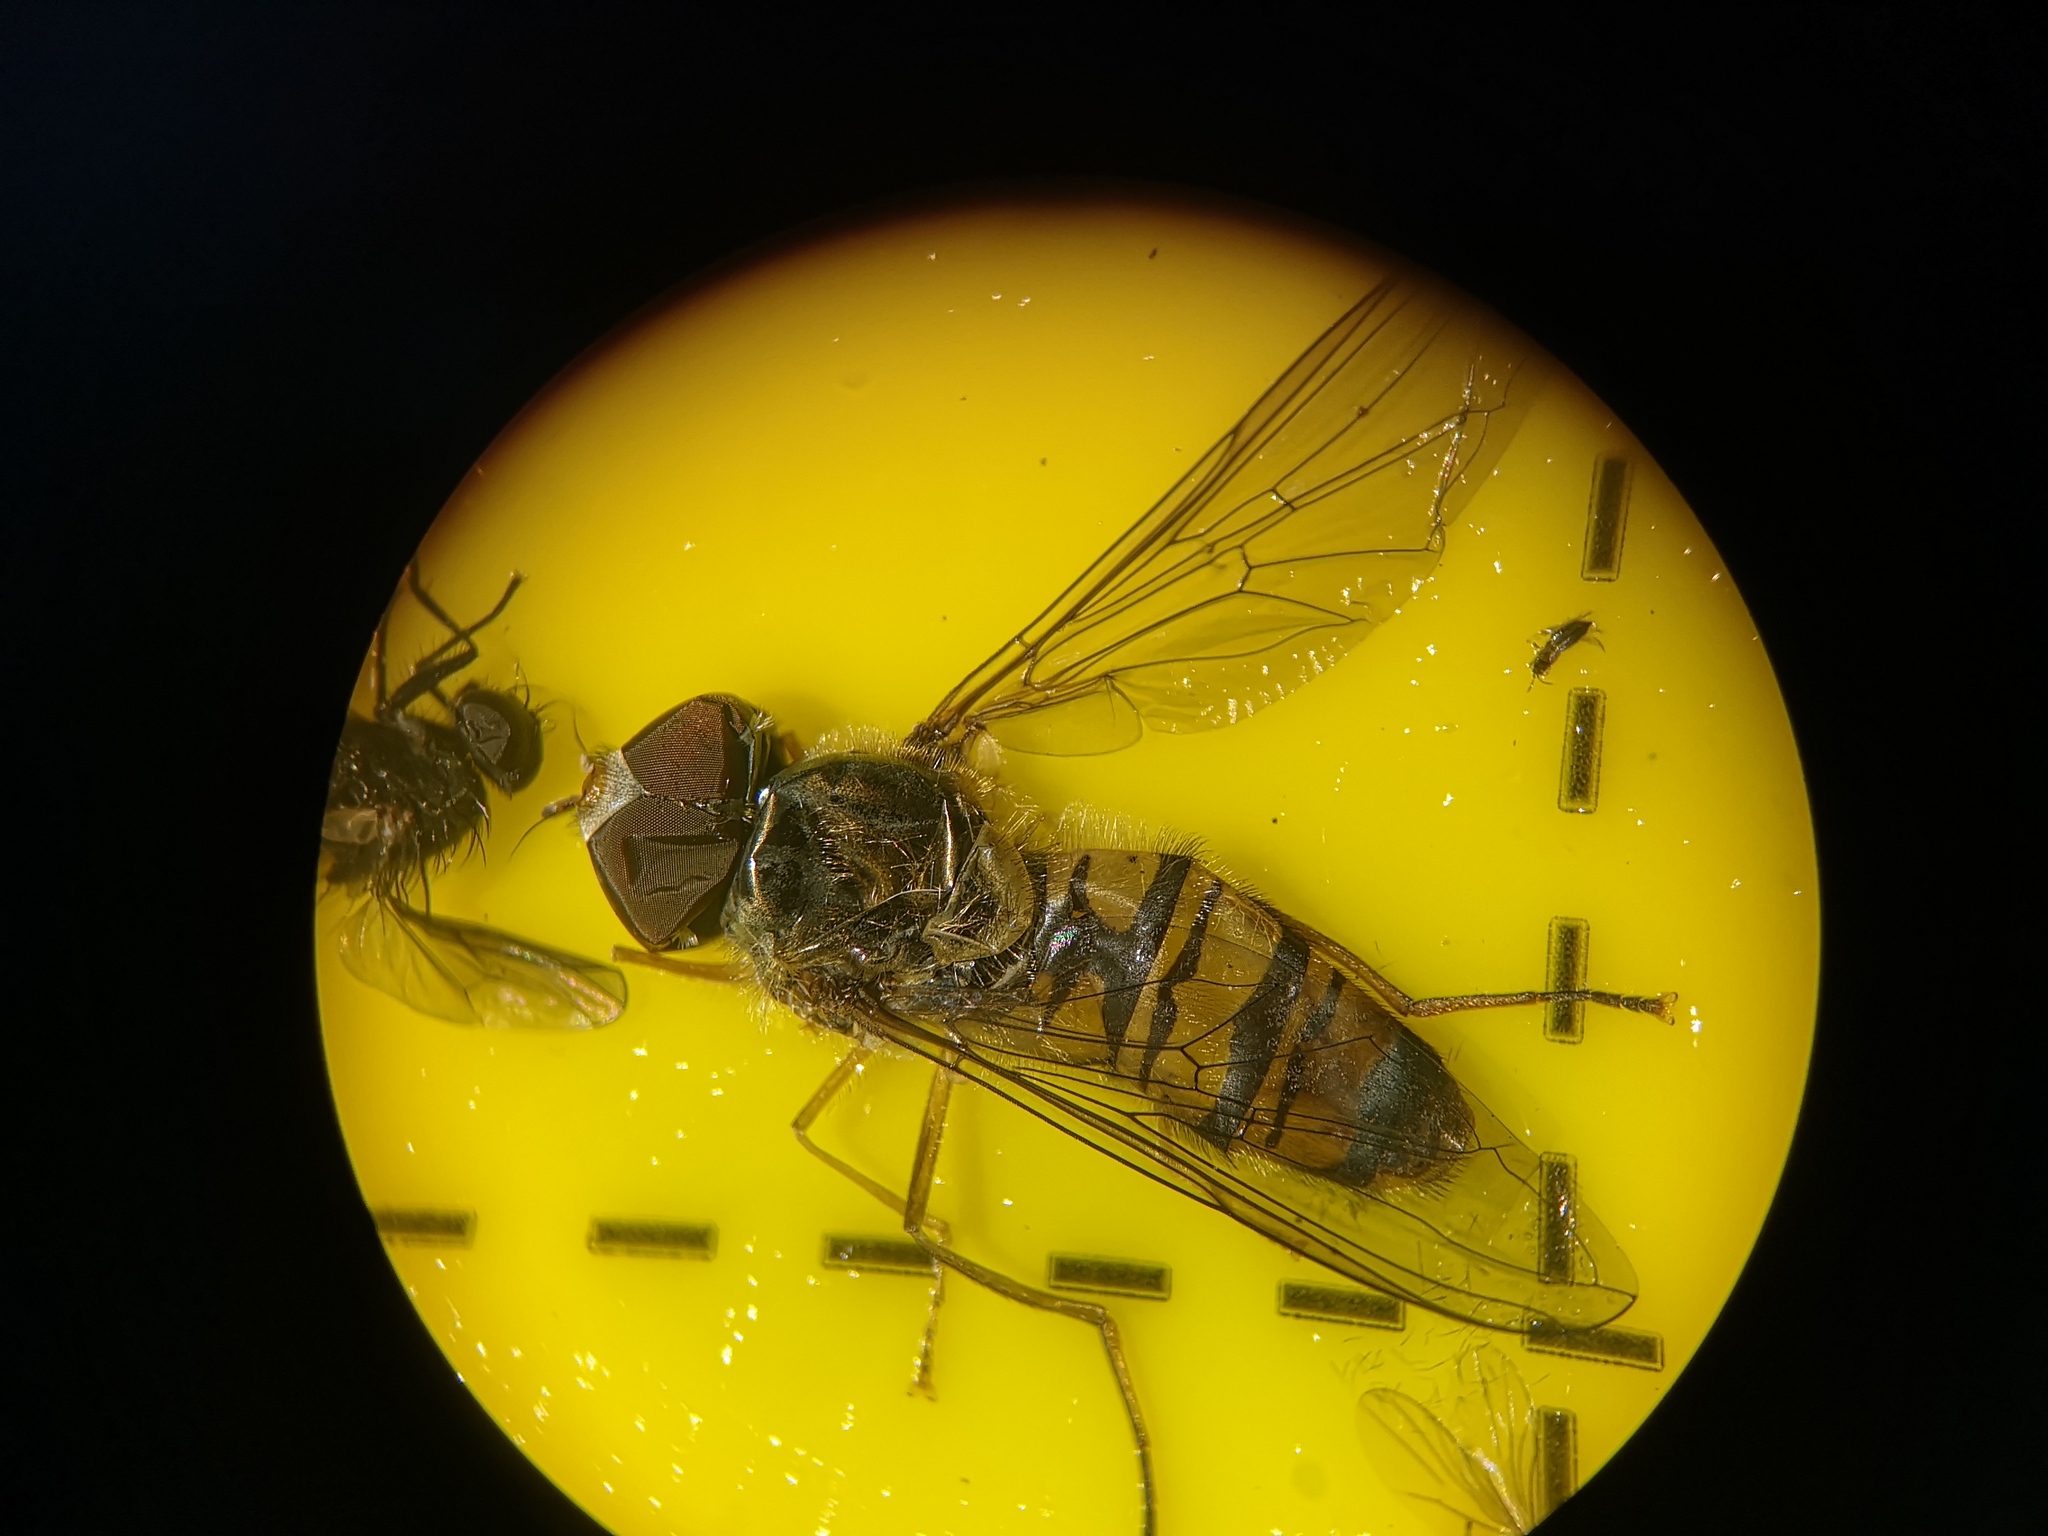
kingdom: Animalia
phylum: Arthropoda
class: Insecta
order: Diptera
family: Syrphidae
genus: Episyrphus
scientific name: Episyrphus balteatus
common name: Marmalade hoverfly
